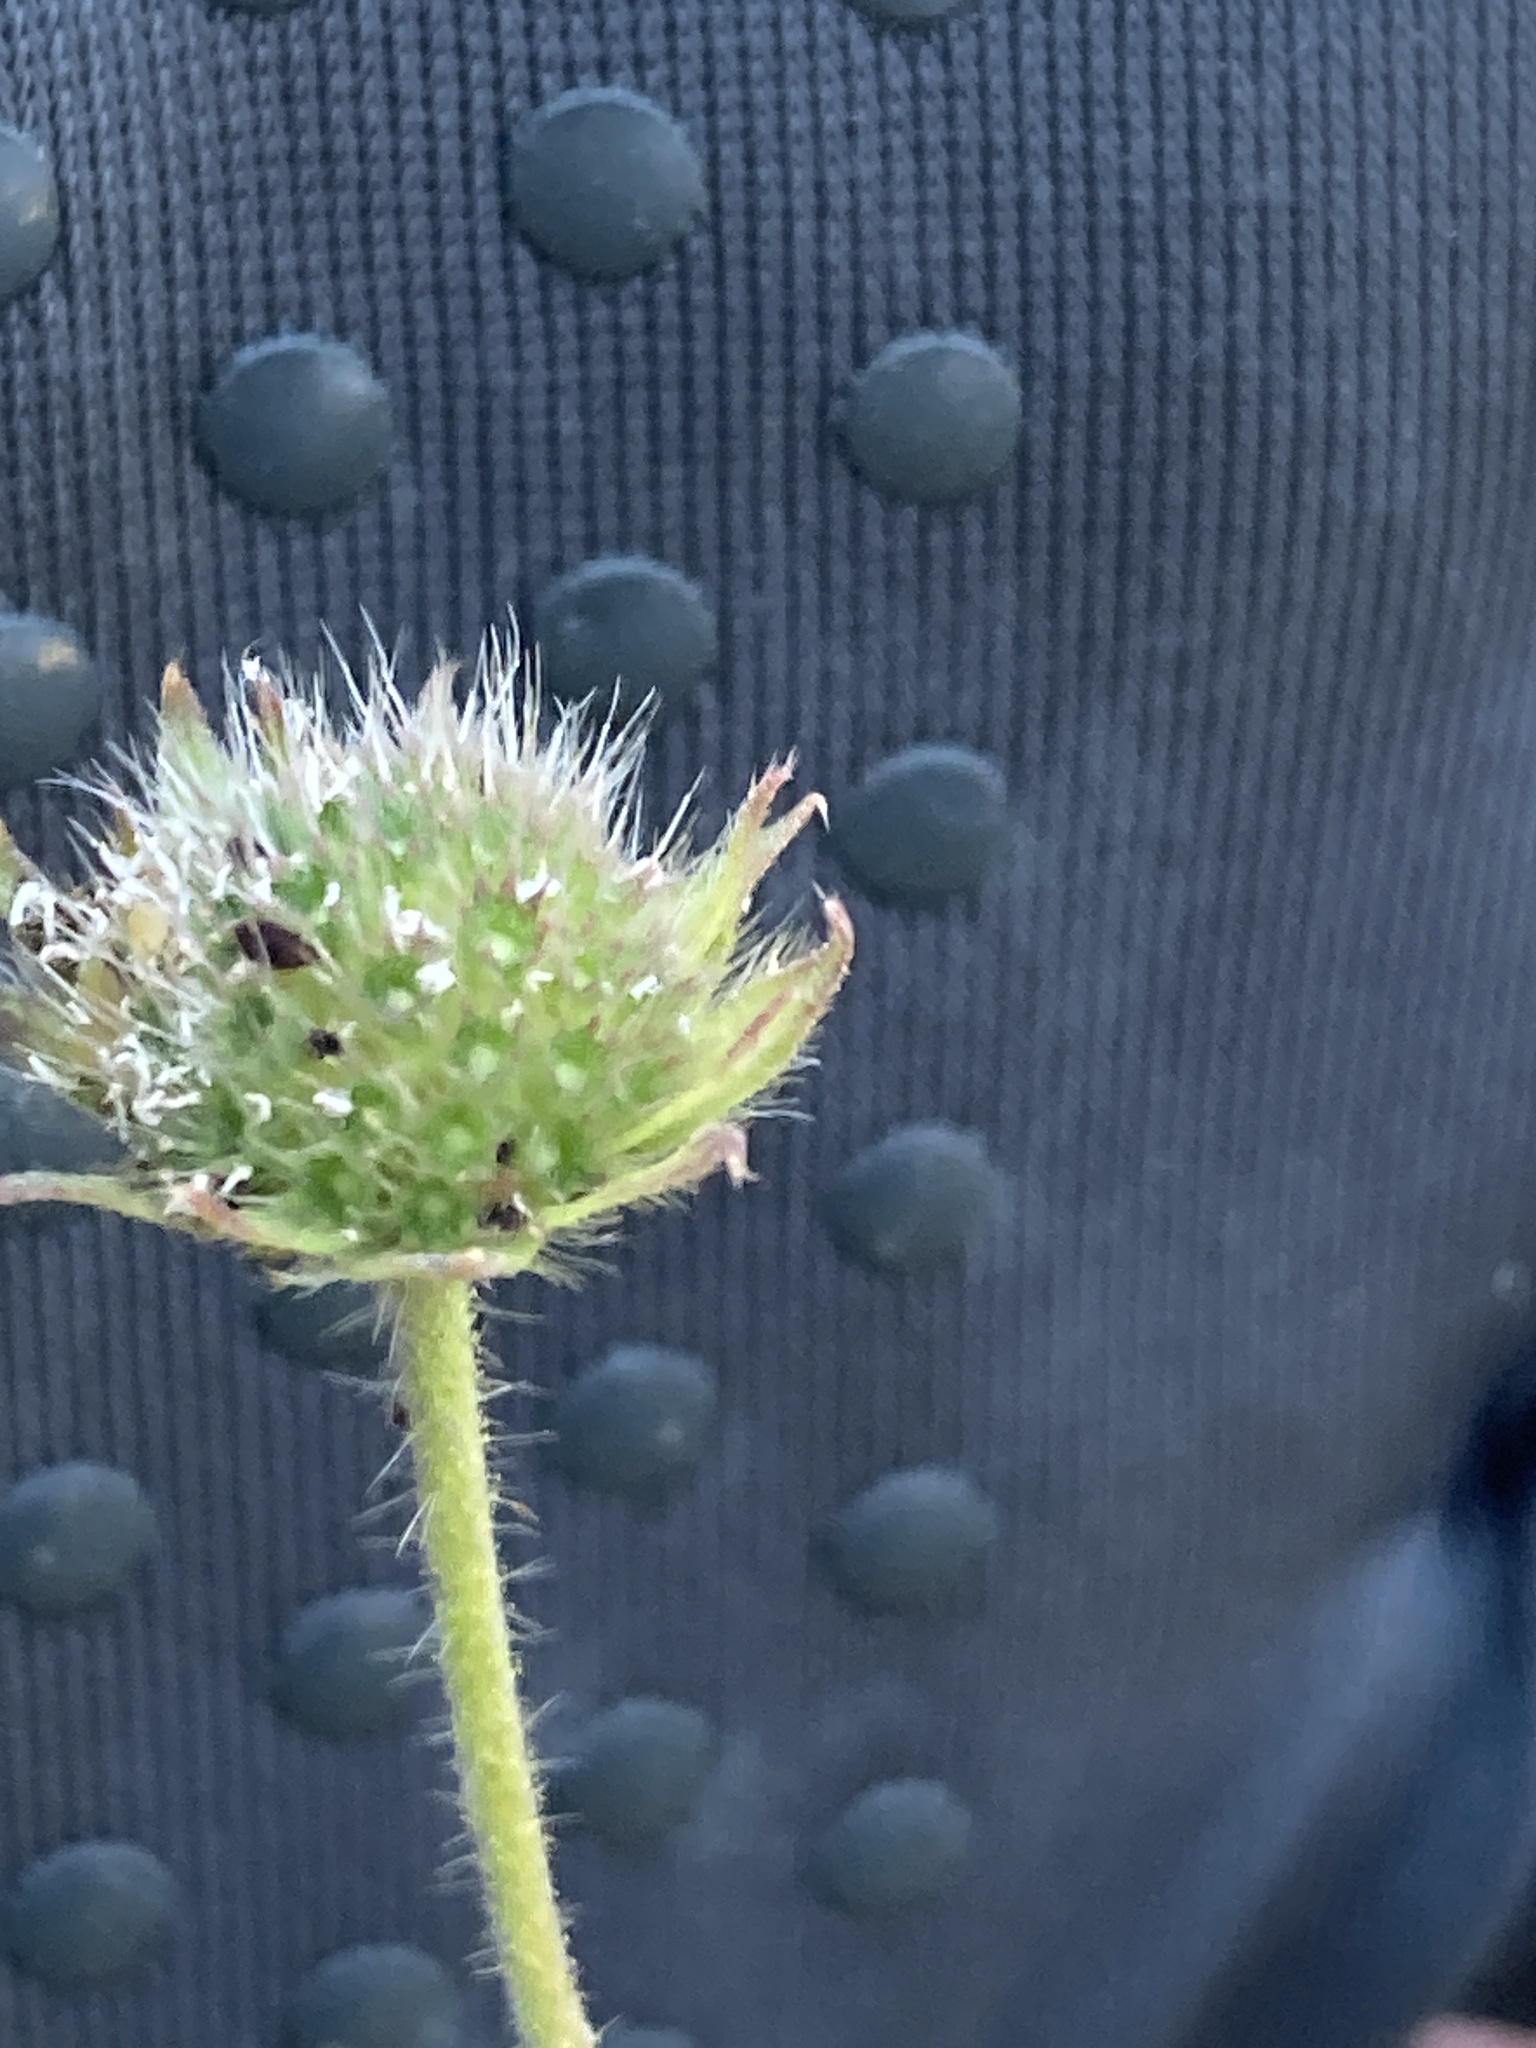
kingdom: Plantae
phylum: Tracheophyta
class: Magnoliopsida
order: Dipsacales
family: Caprifoliaceae
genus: Knautia
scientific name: Knautia arvensis
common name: Field scabiosa
